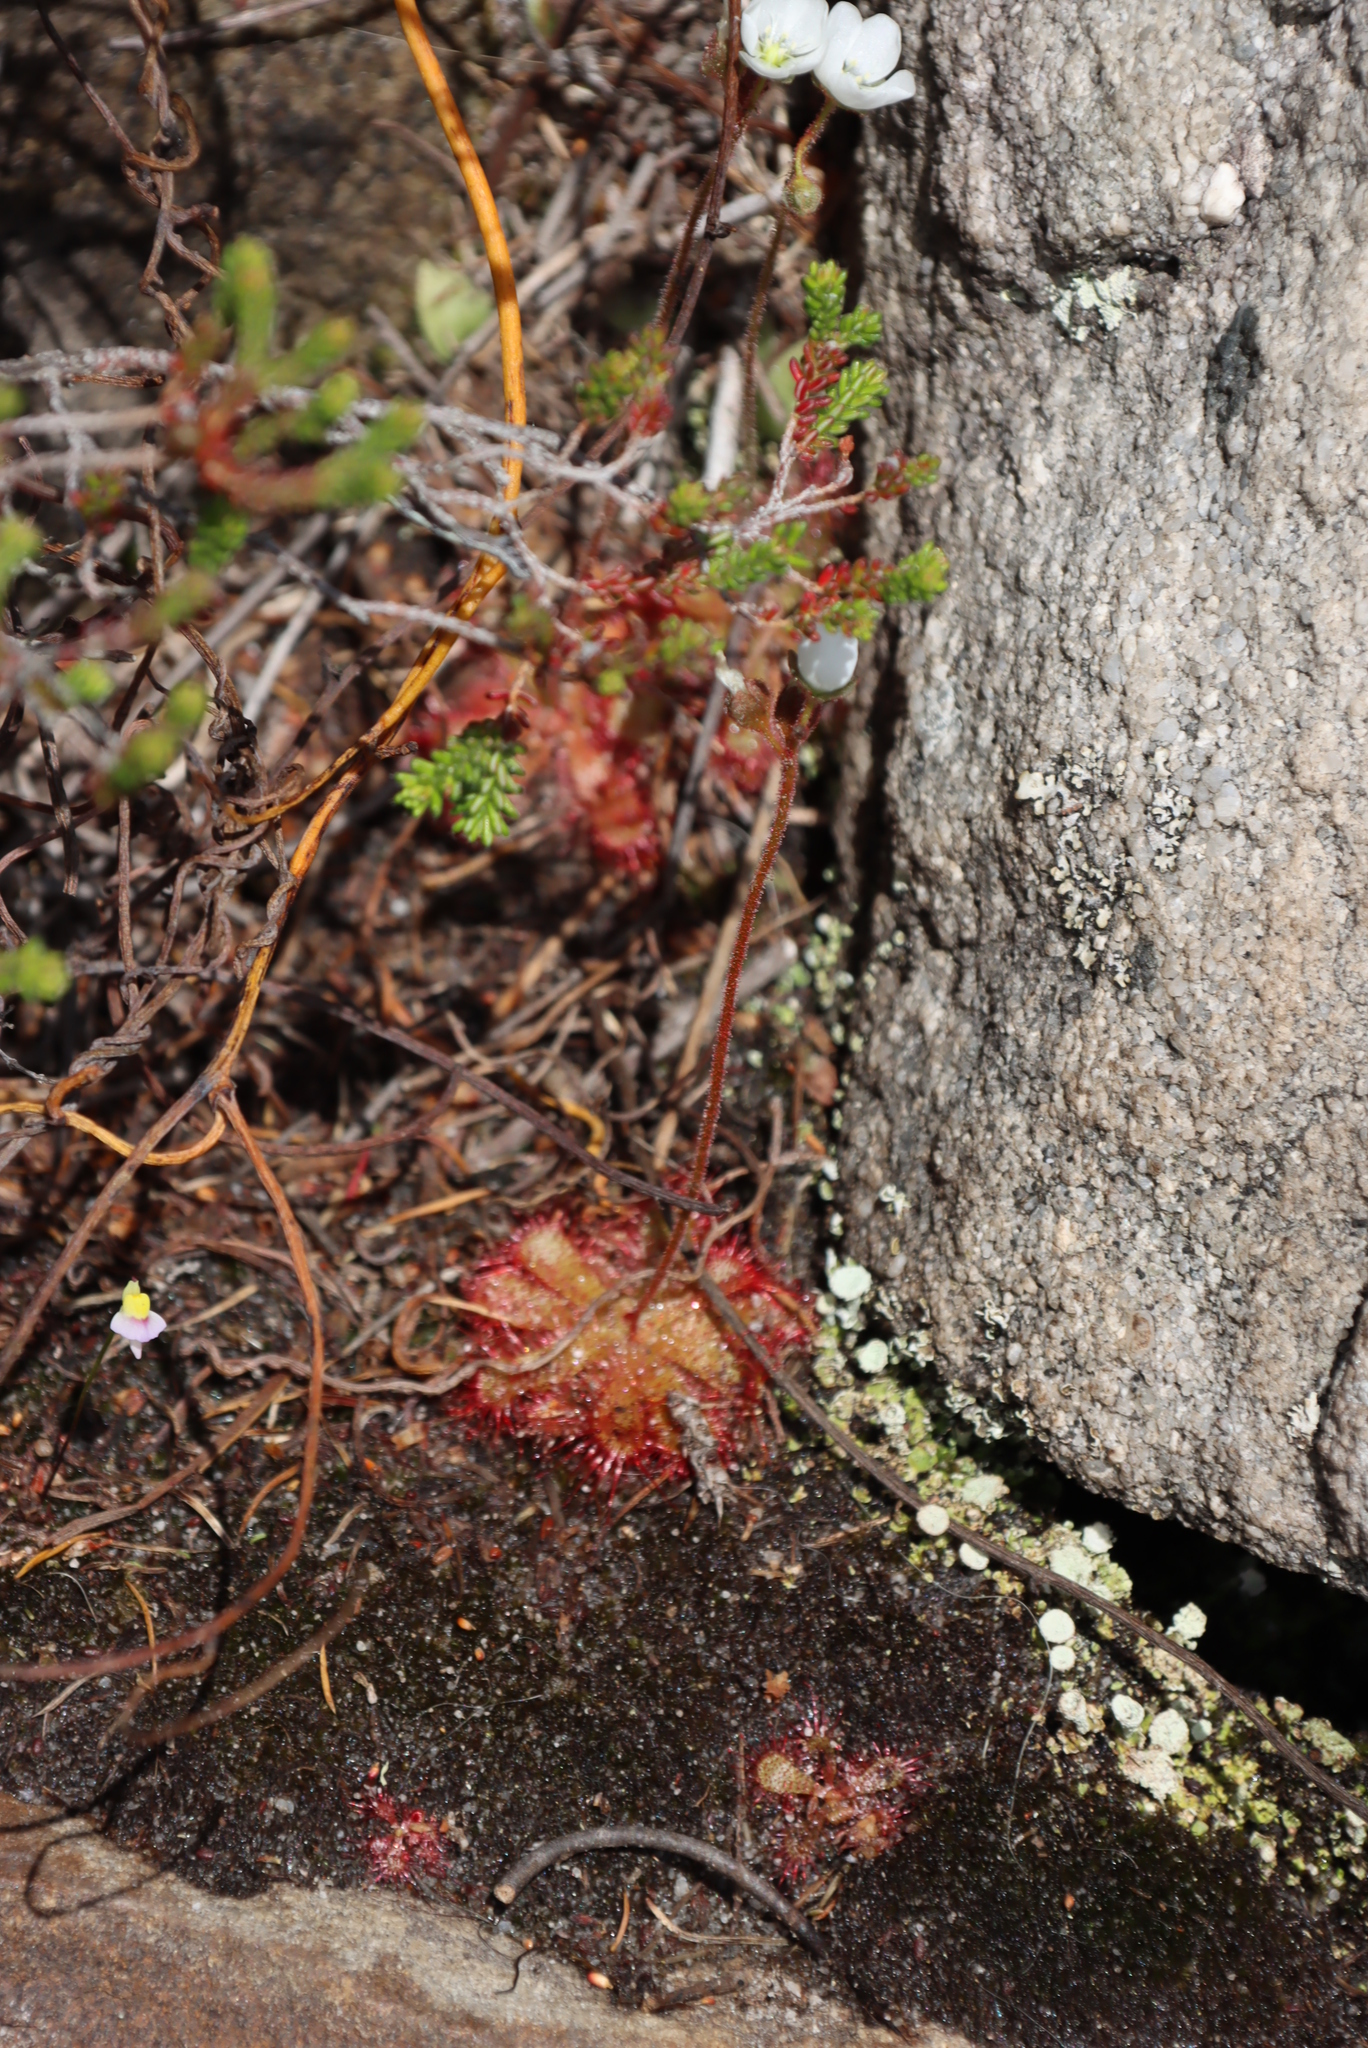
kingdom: Plantae
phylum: Tracheophyta
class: Magnoliopsida
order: Caryophyllales
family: Droseraceae
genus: Drosera
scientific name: Drosera trinervia
